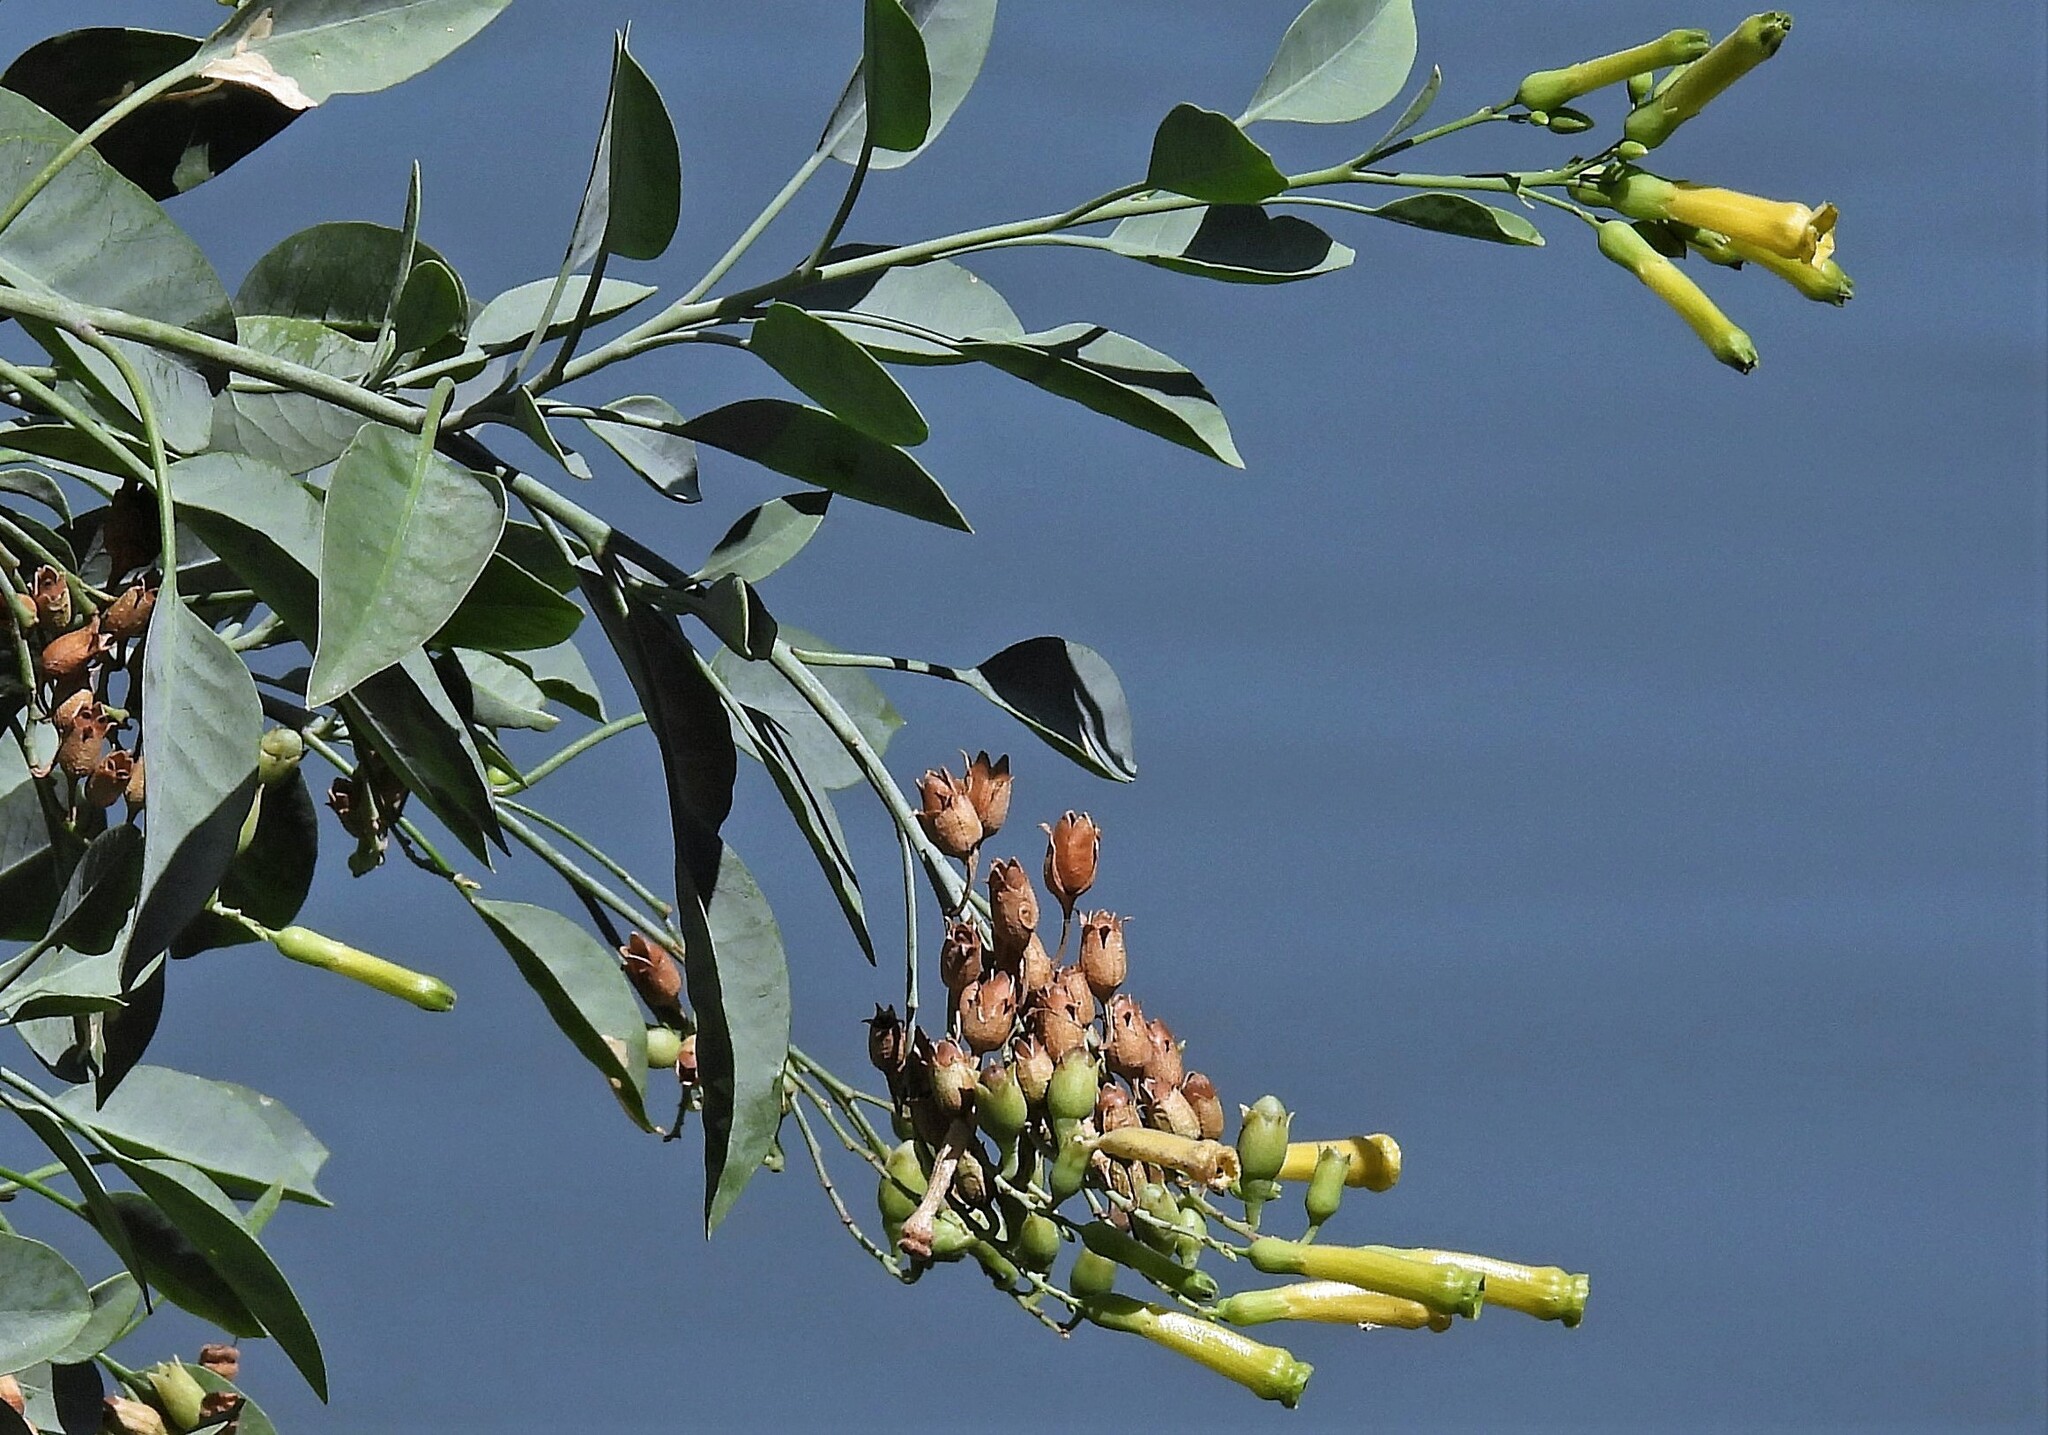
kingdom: Plantae
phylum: Tracheophyta
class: Magnoliopsida
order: Solanales
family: Solanaceae
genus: Nicotiana
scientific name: Nicotiana glauca
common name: Tree tobacco
